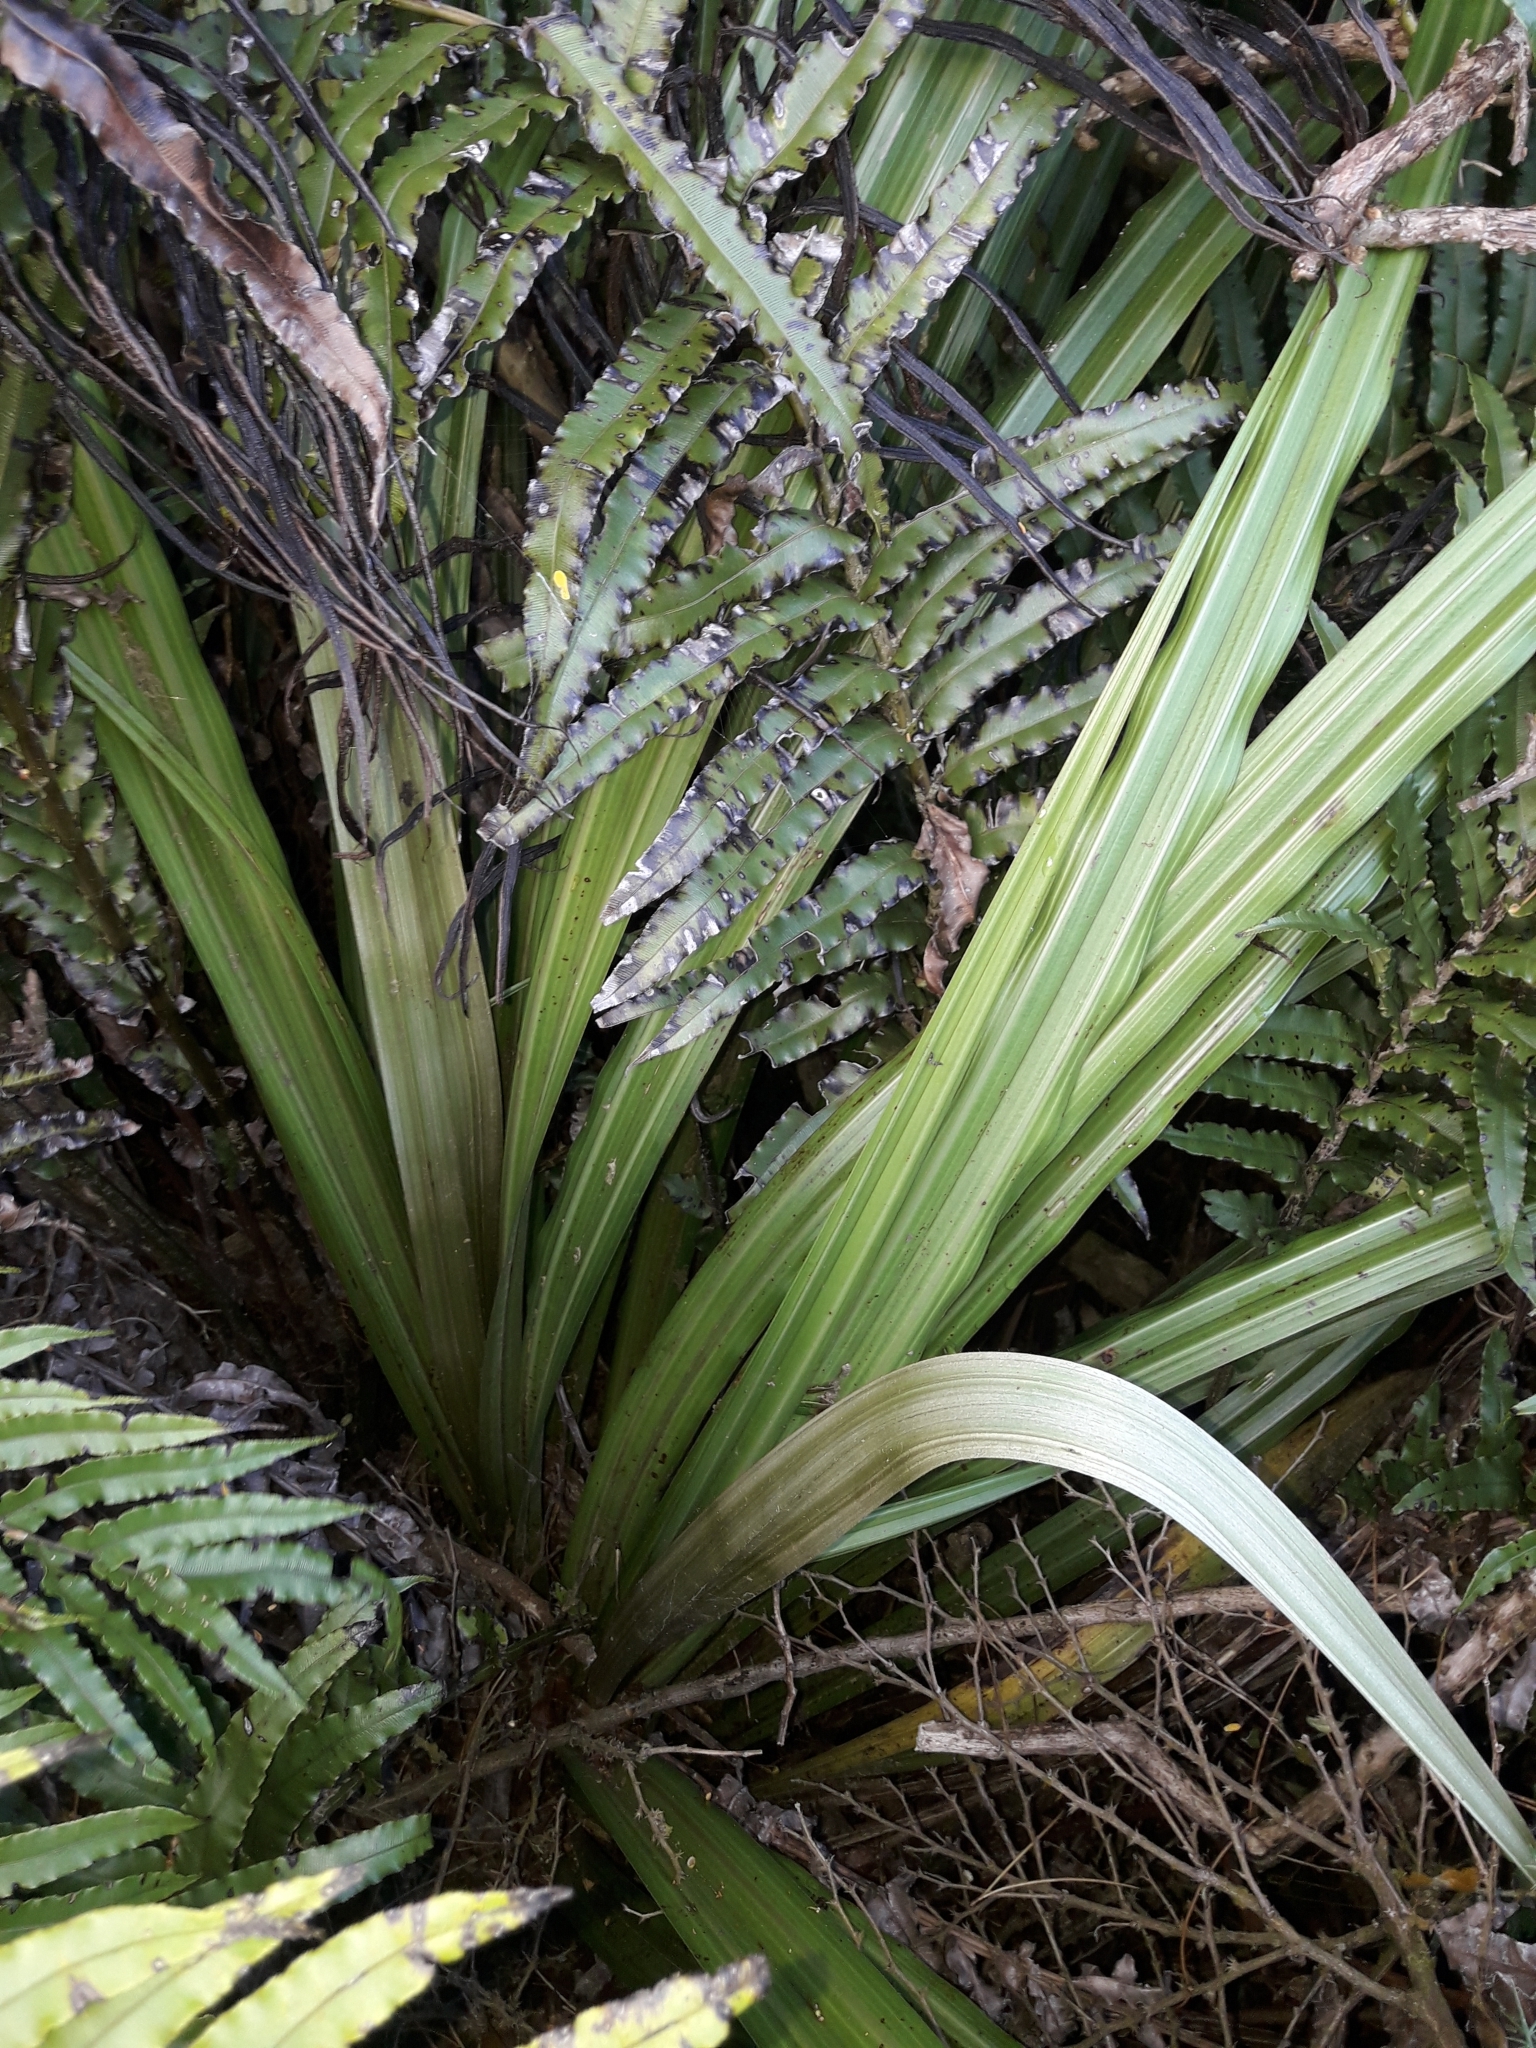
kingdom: Plantae
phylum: Tracheophyta
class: Liliopsida
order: Asparagales
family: Asteliaceae
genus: Astelia
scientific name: Astelia fragrans
